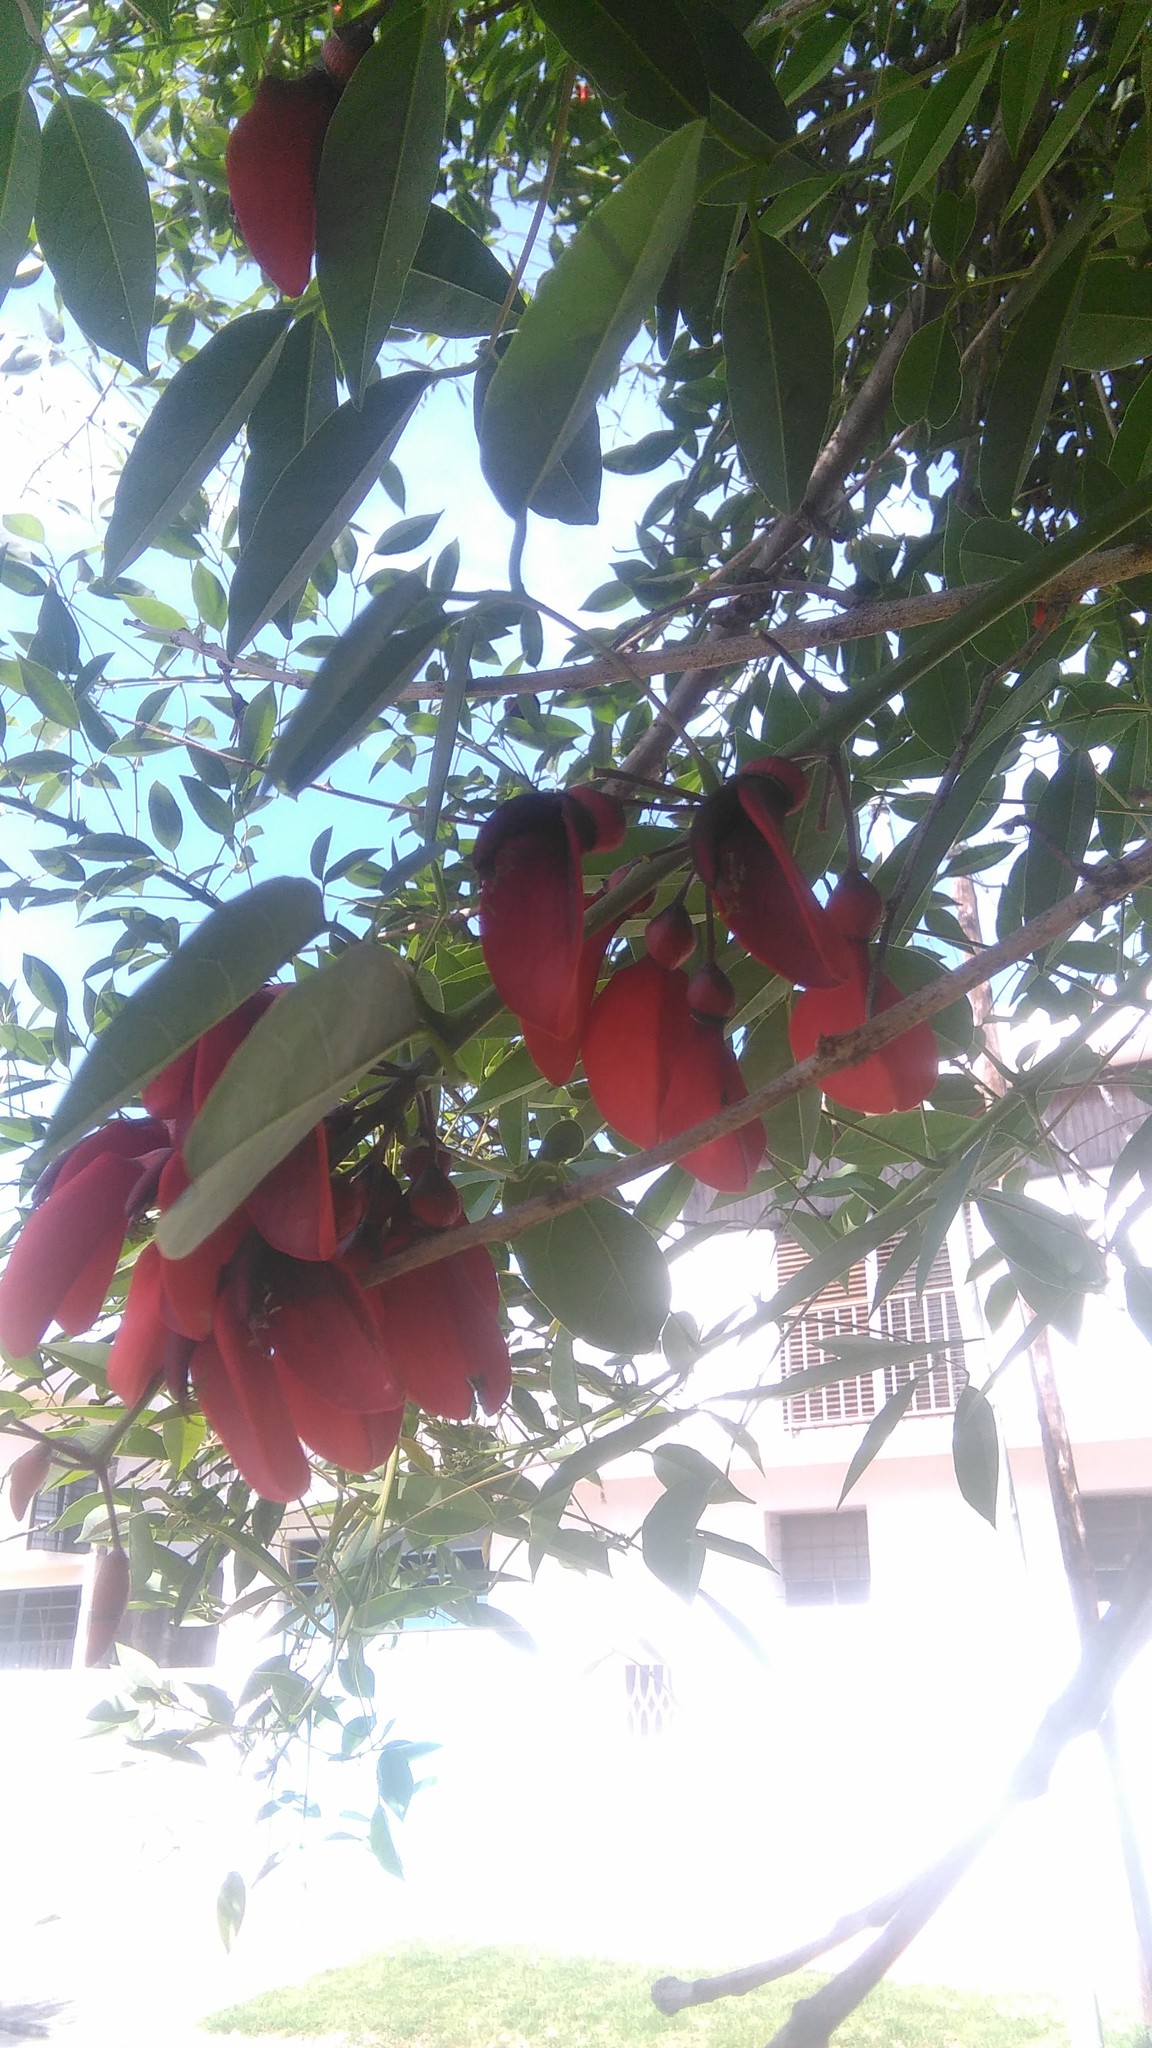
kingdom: Plantae
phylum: Tracheophyta
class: Magnoliopsida
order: Fabales
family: Fabaceae
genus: Erythrina
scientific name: Erythrina crista-galli
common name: Cockspur coral tree
